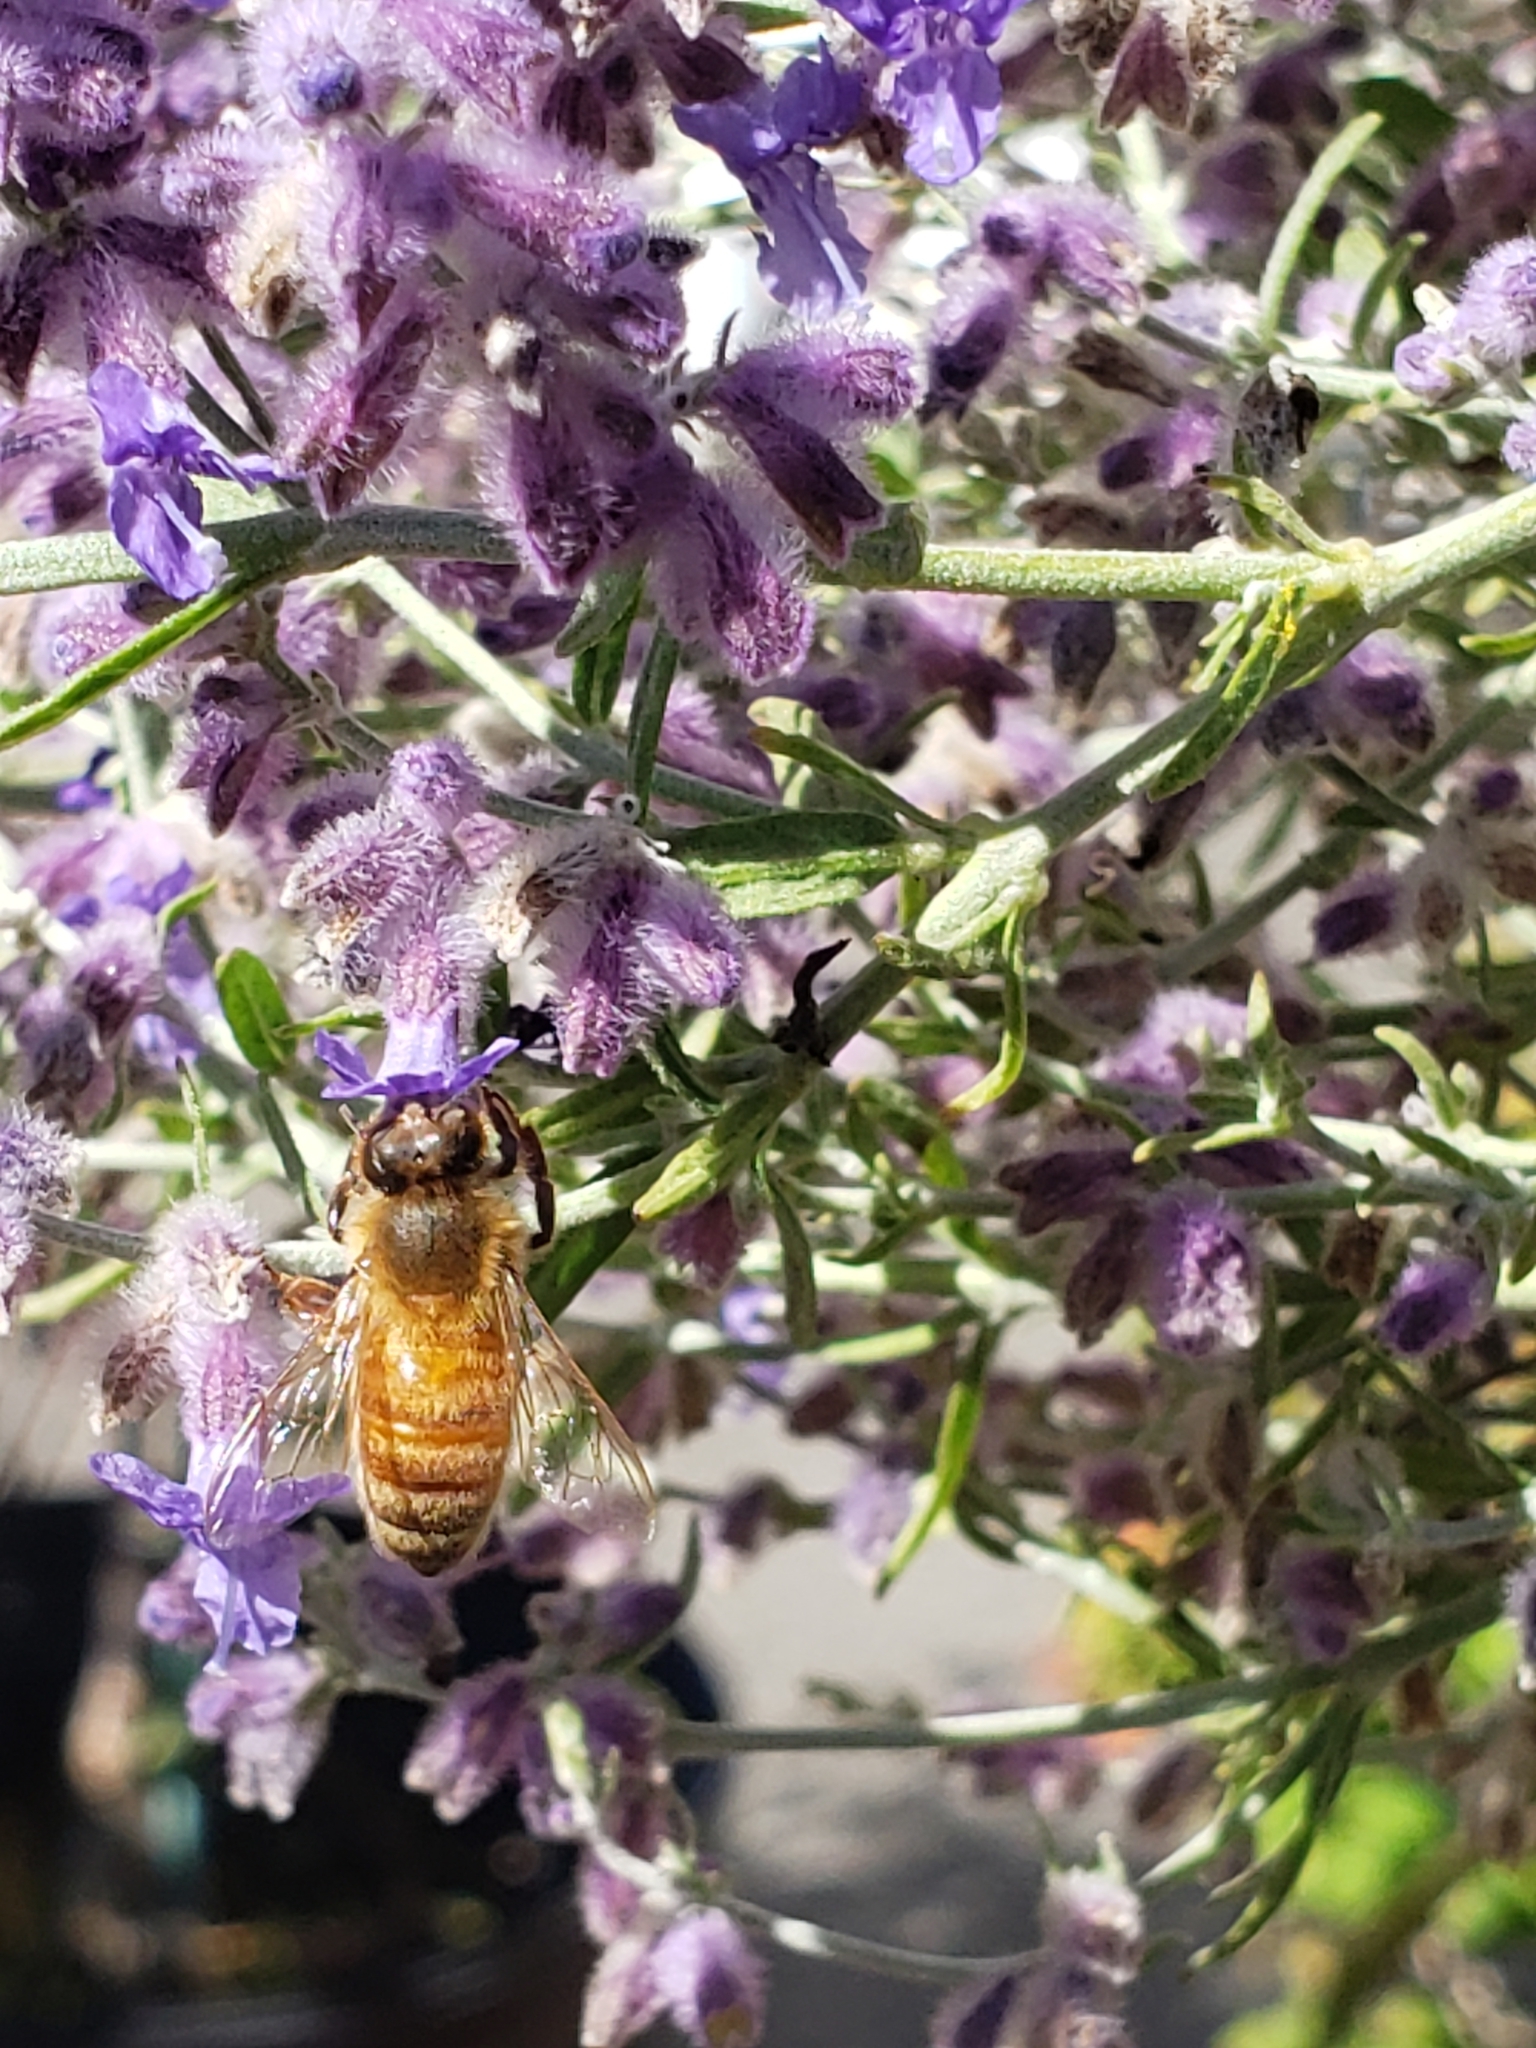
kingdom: Animalia
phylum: Arthropoda
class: Insecta
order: Hymenoptera
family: Apidae
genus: Apis
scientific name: Apis mellifera
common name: Honey bee
